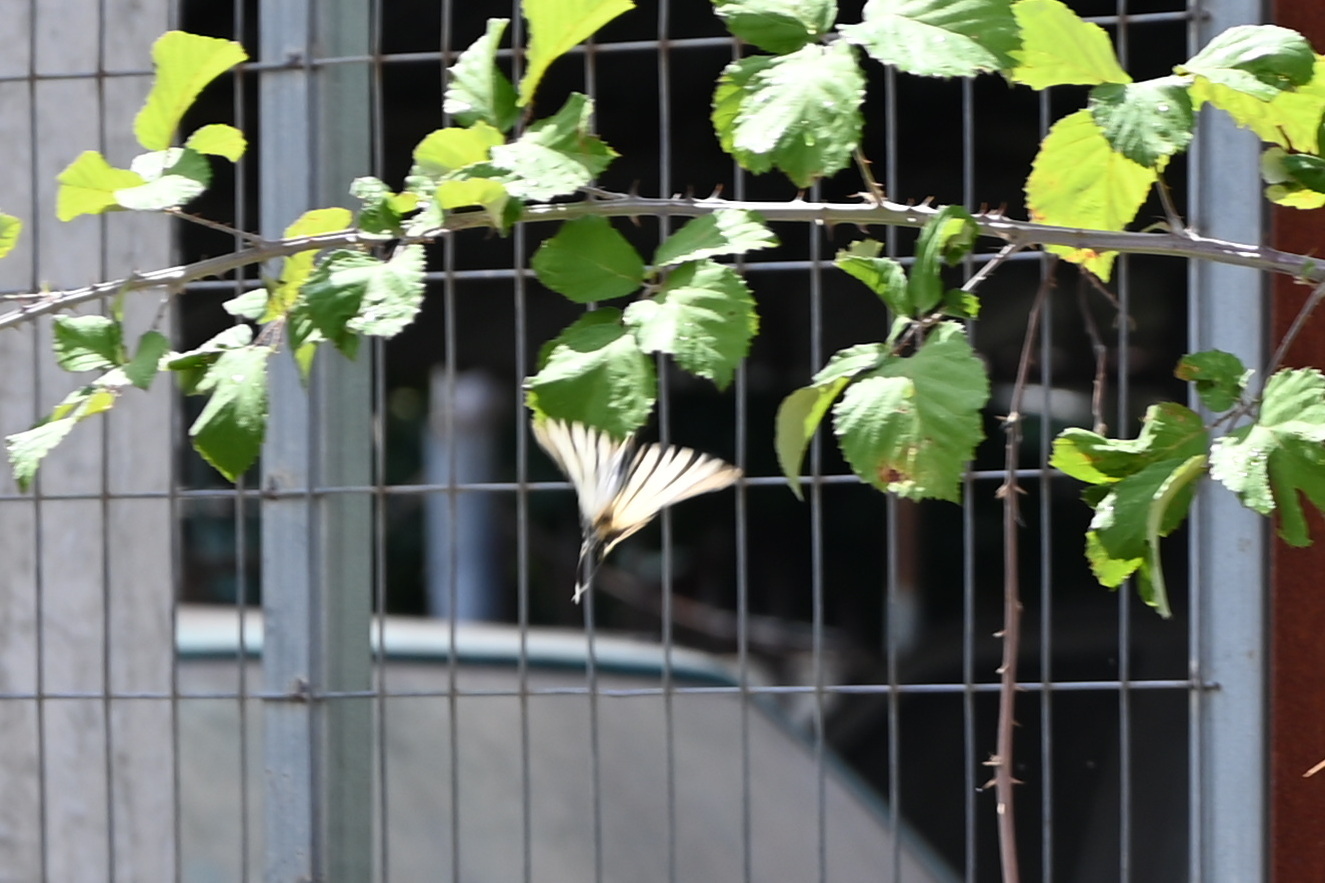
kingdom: Animalia
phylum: Arthropoda
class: Insecta
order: Lepidoptera
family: Papilionidae
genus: Iphiclides
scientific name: Iphiclides podalirius
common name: Scarce swallowtail
